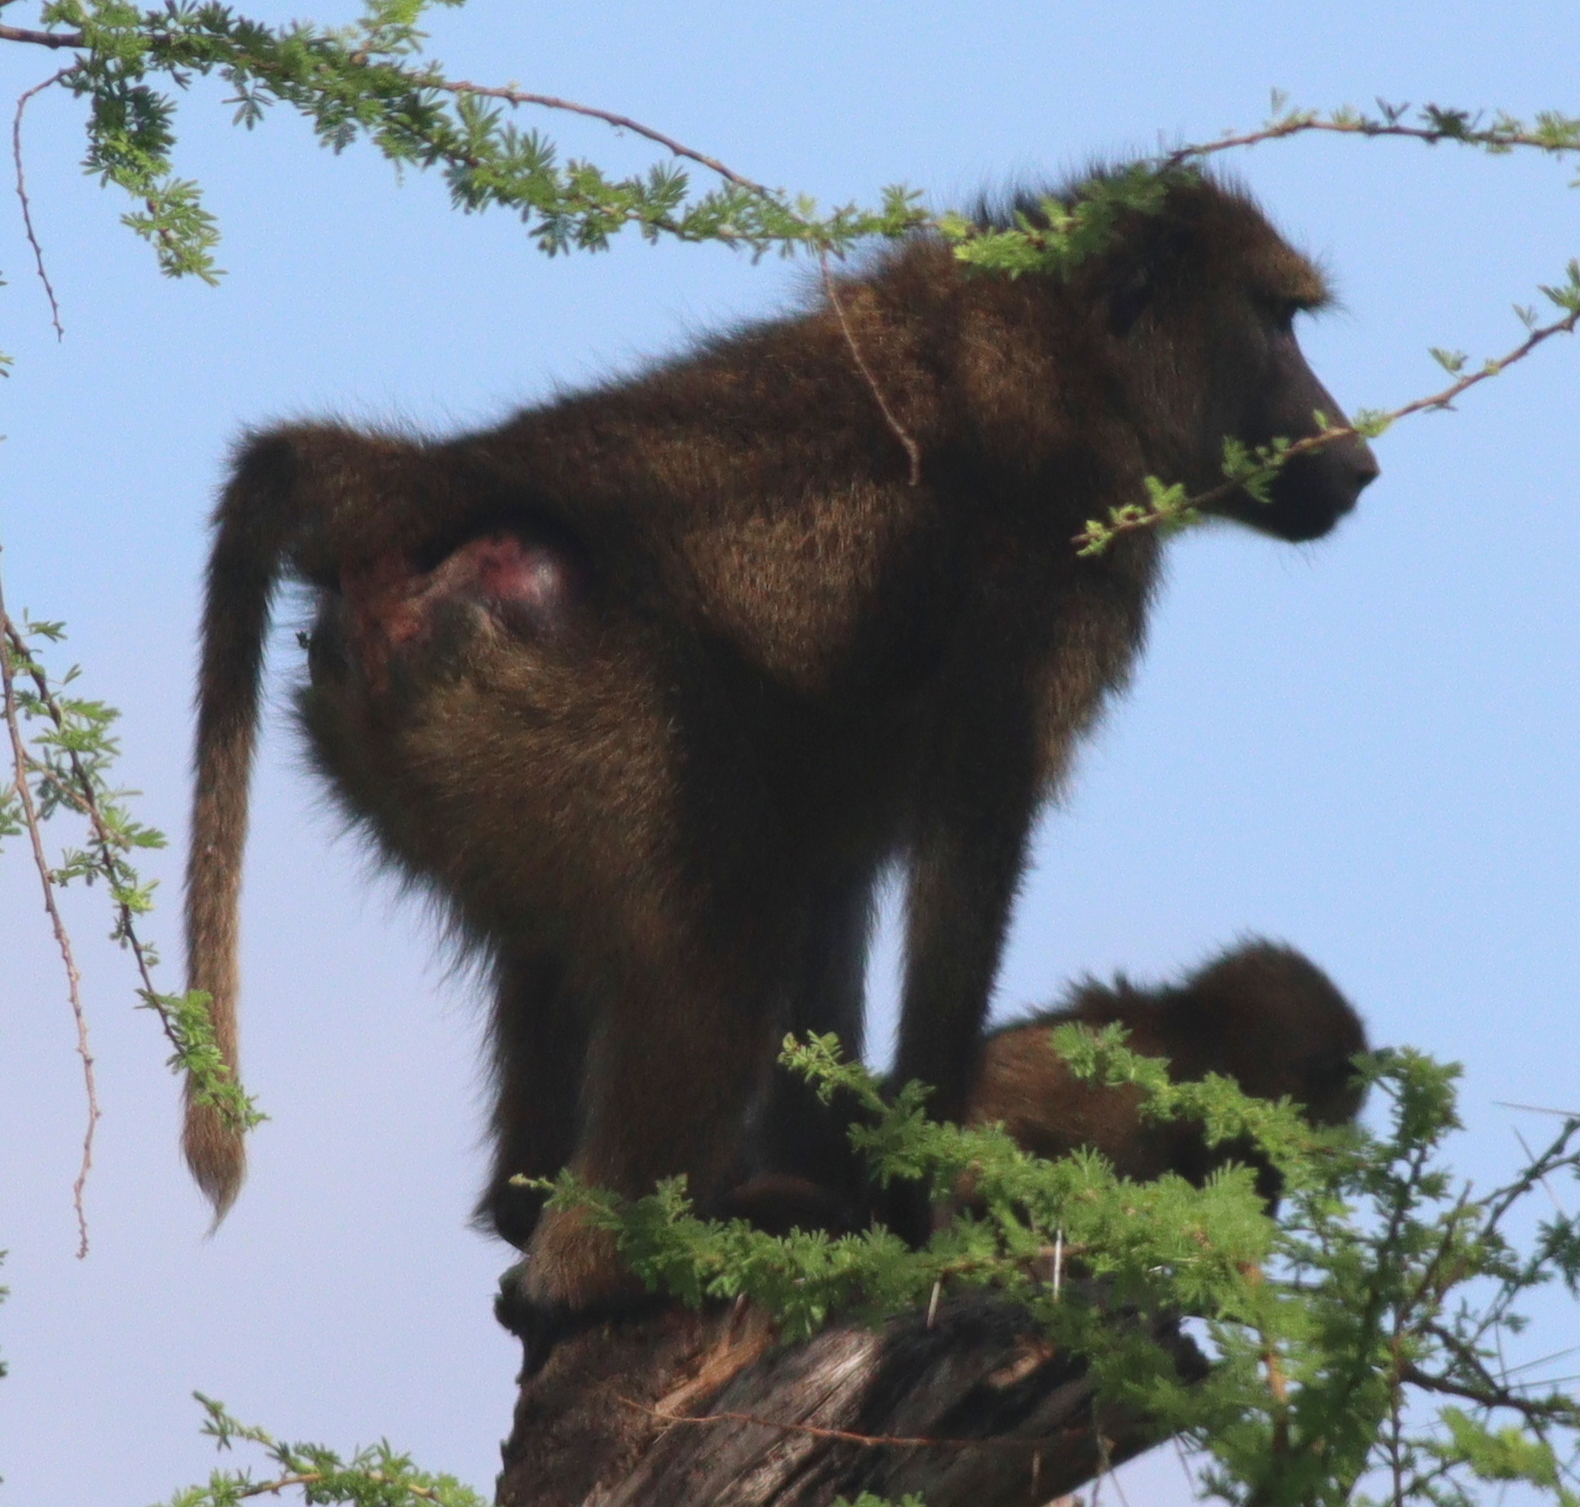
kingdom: Animalia
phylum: Chordata
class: Mammalia
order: Primates
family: Cercopithecidae
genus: Papio
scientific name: Papio anubis
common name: Olive baboon
